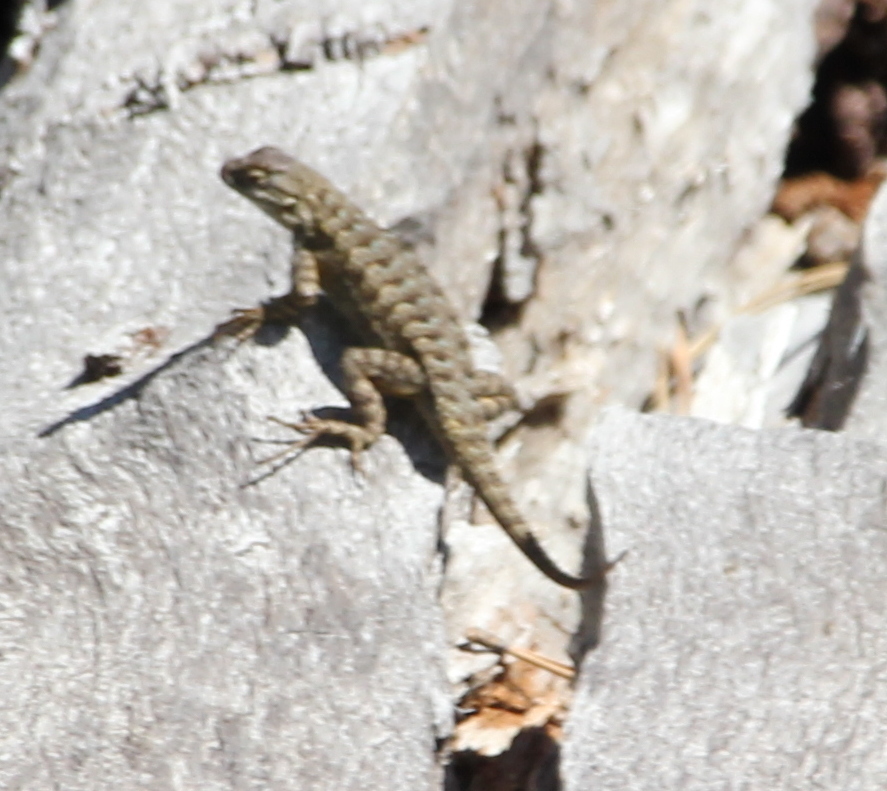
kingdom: Animalia
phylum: Chordata
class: Squamata
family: Phrynosomatidae
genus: Sceloporus
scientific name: Sceloporus occidentalis
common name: Western fence lizard
